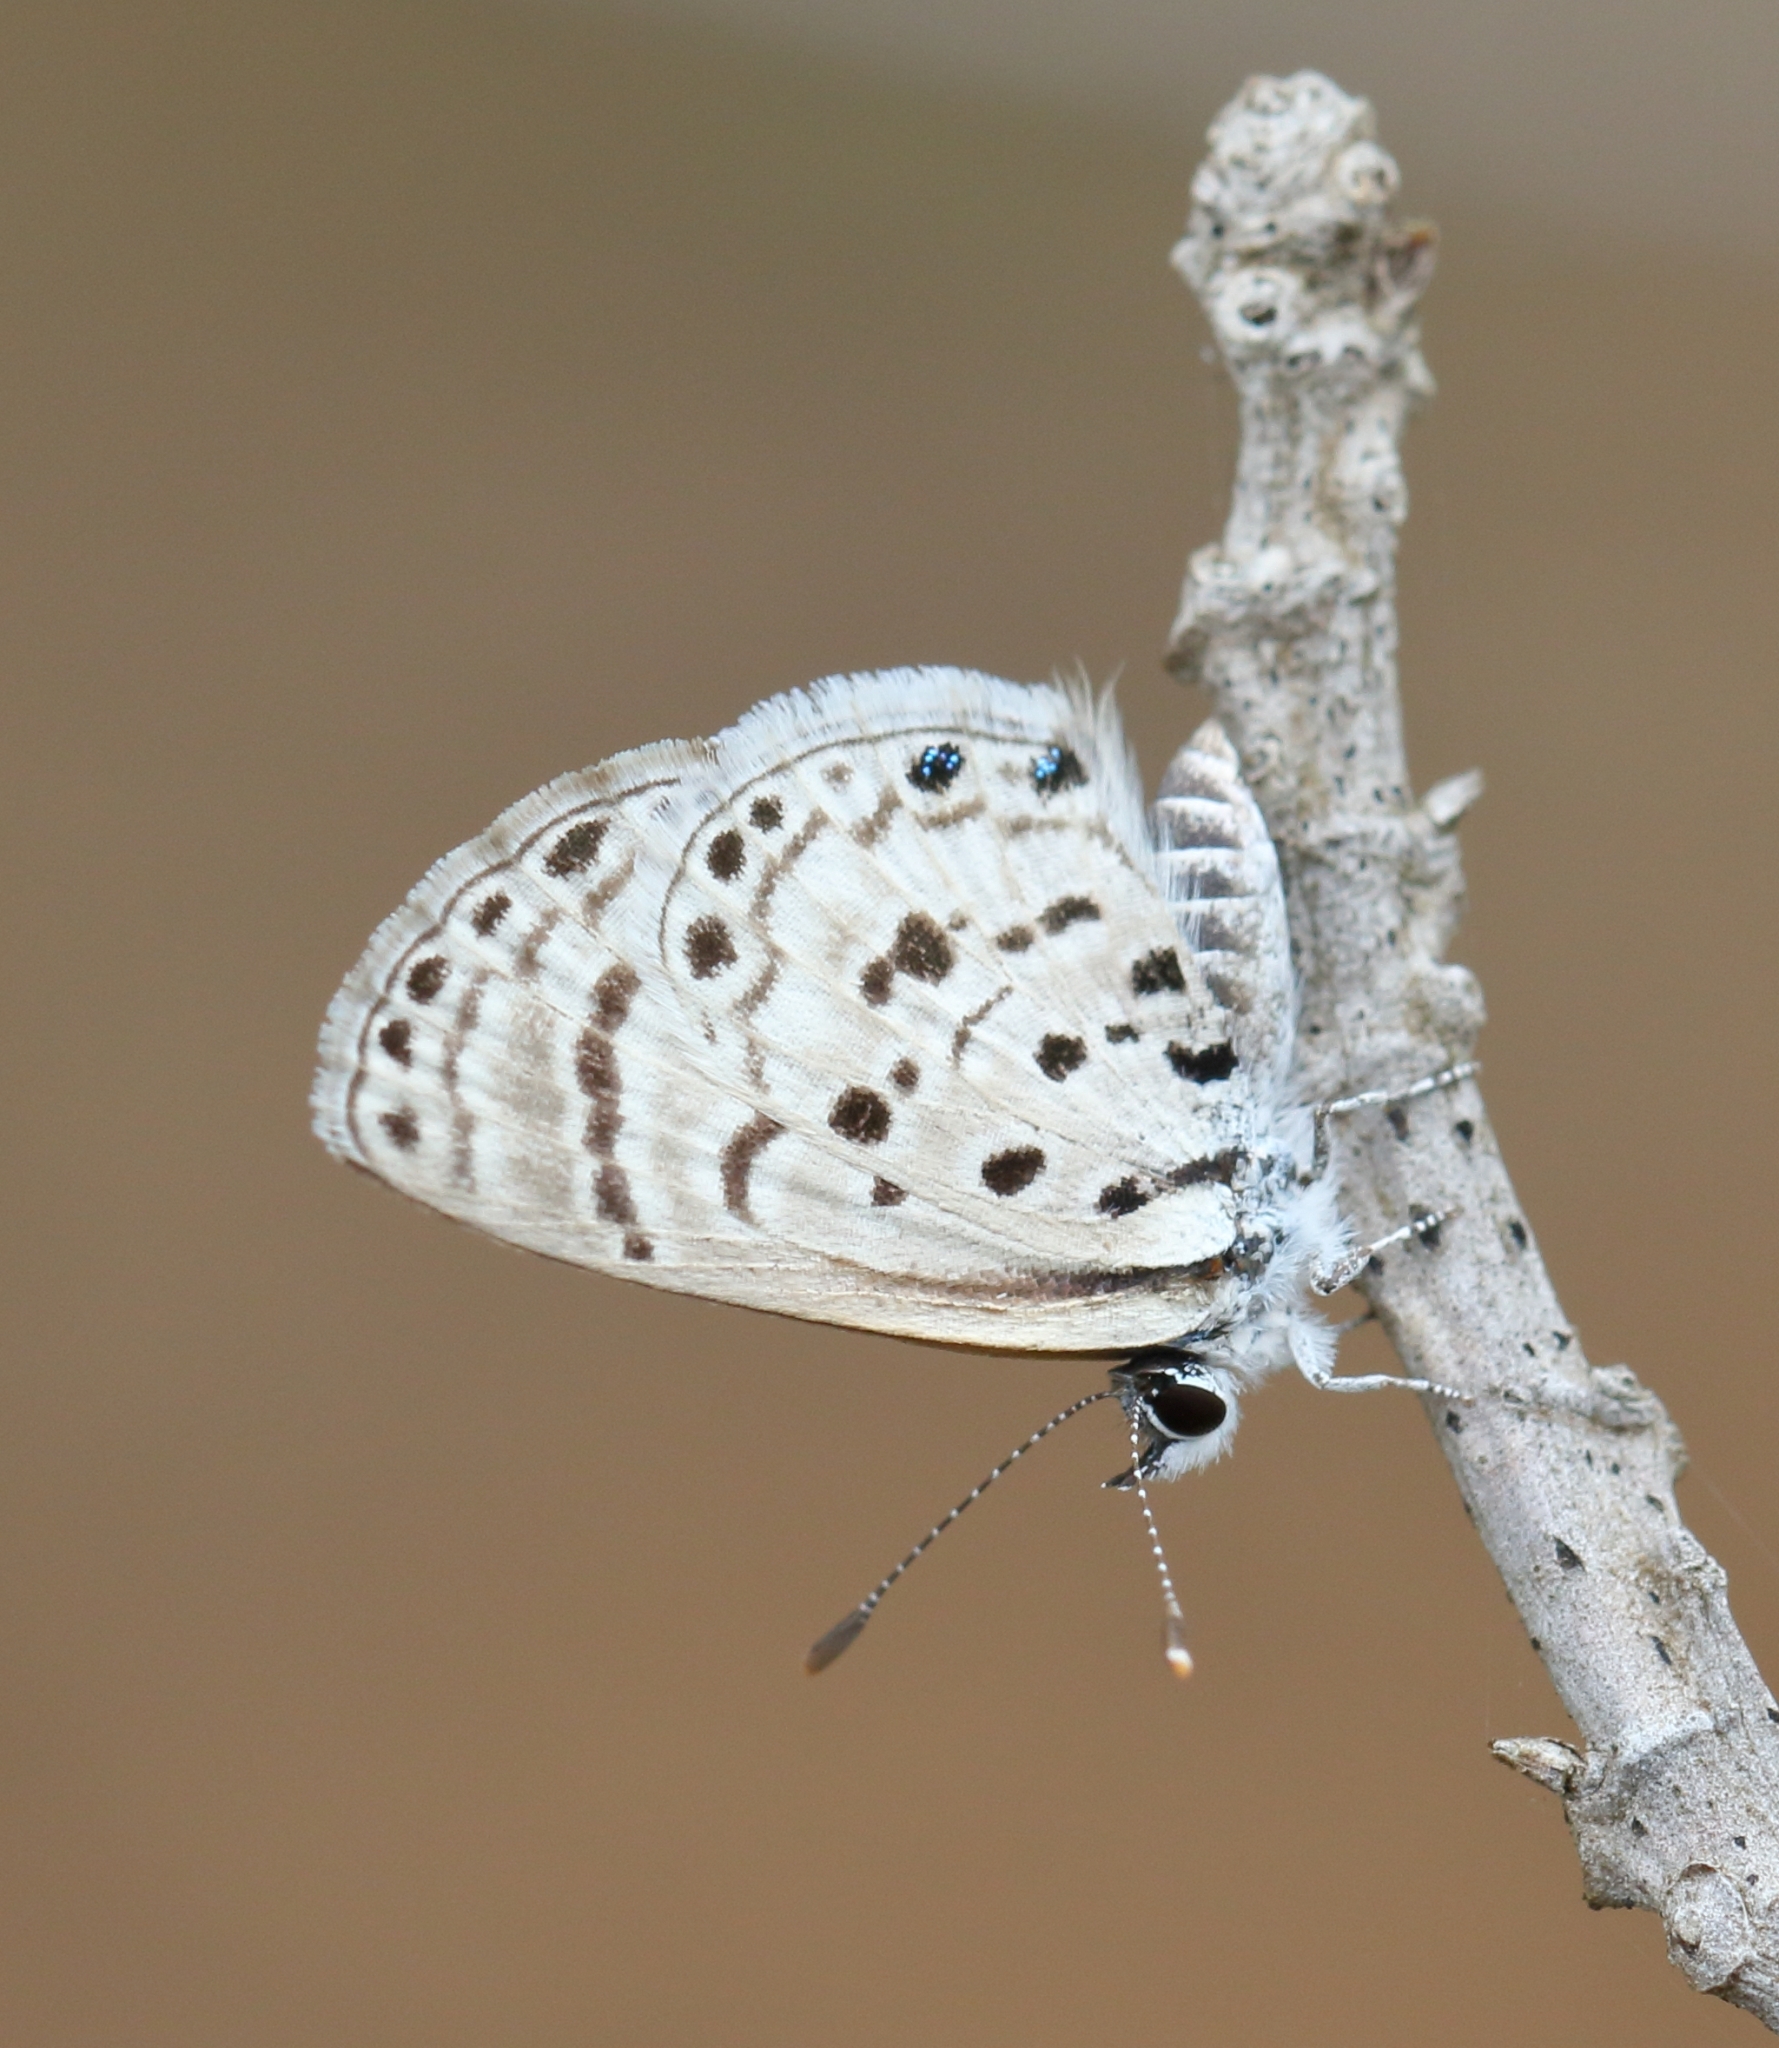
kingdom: Animalia
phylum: Arthropoda
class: Insecta
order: Lepidoptera
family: Lycaenidae
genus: Azanus
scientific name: Azanus moriqua
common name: Thorn-tree babul blue
